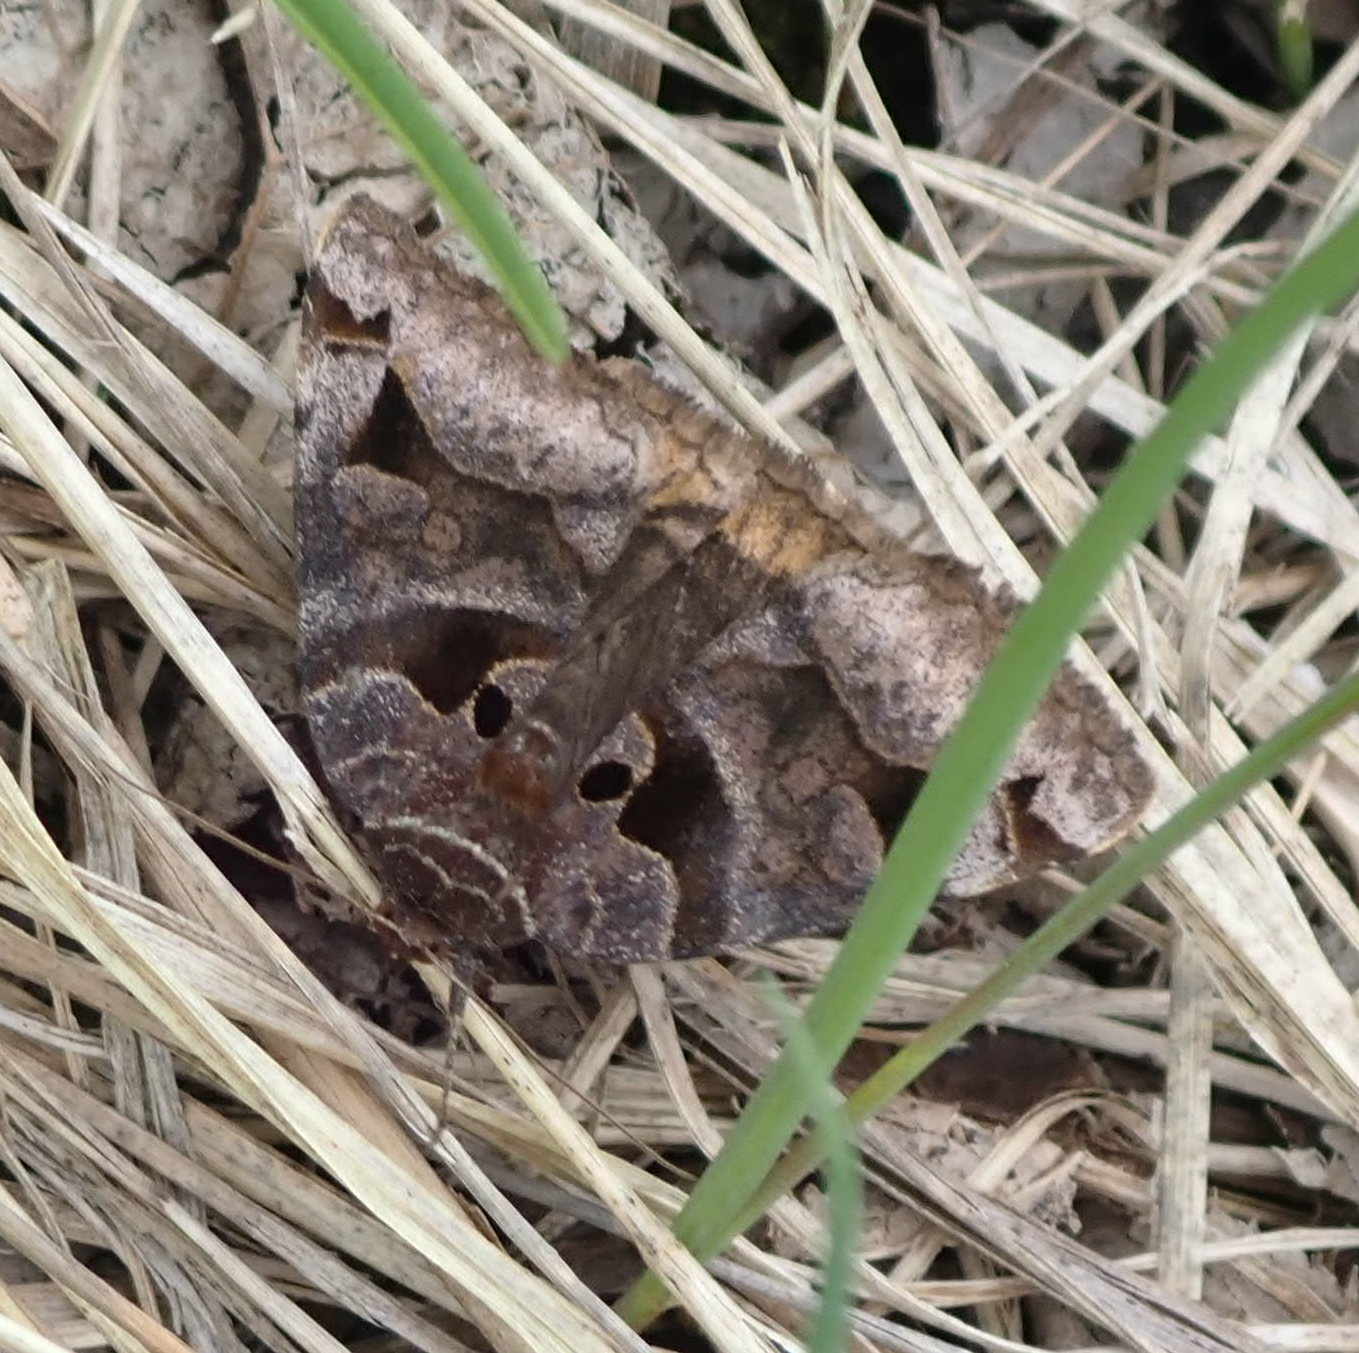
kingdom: Animalia
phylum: Arthropoda
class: Insecta
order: Lepidoptera
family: Erebidae
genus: Euclidia
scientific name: Euclidia cuspidea
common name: Toothed somberwing
